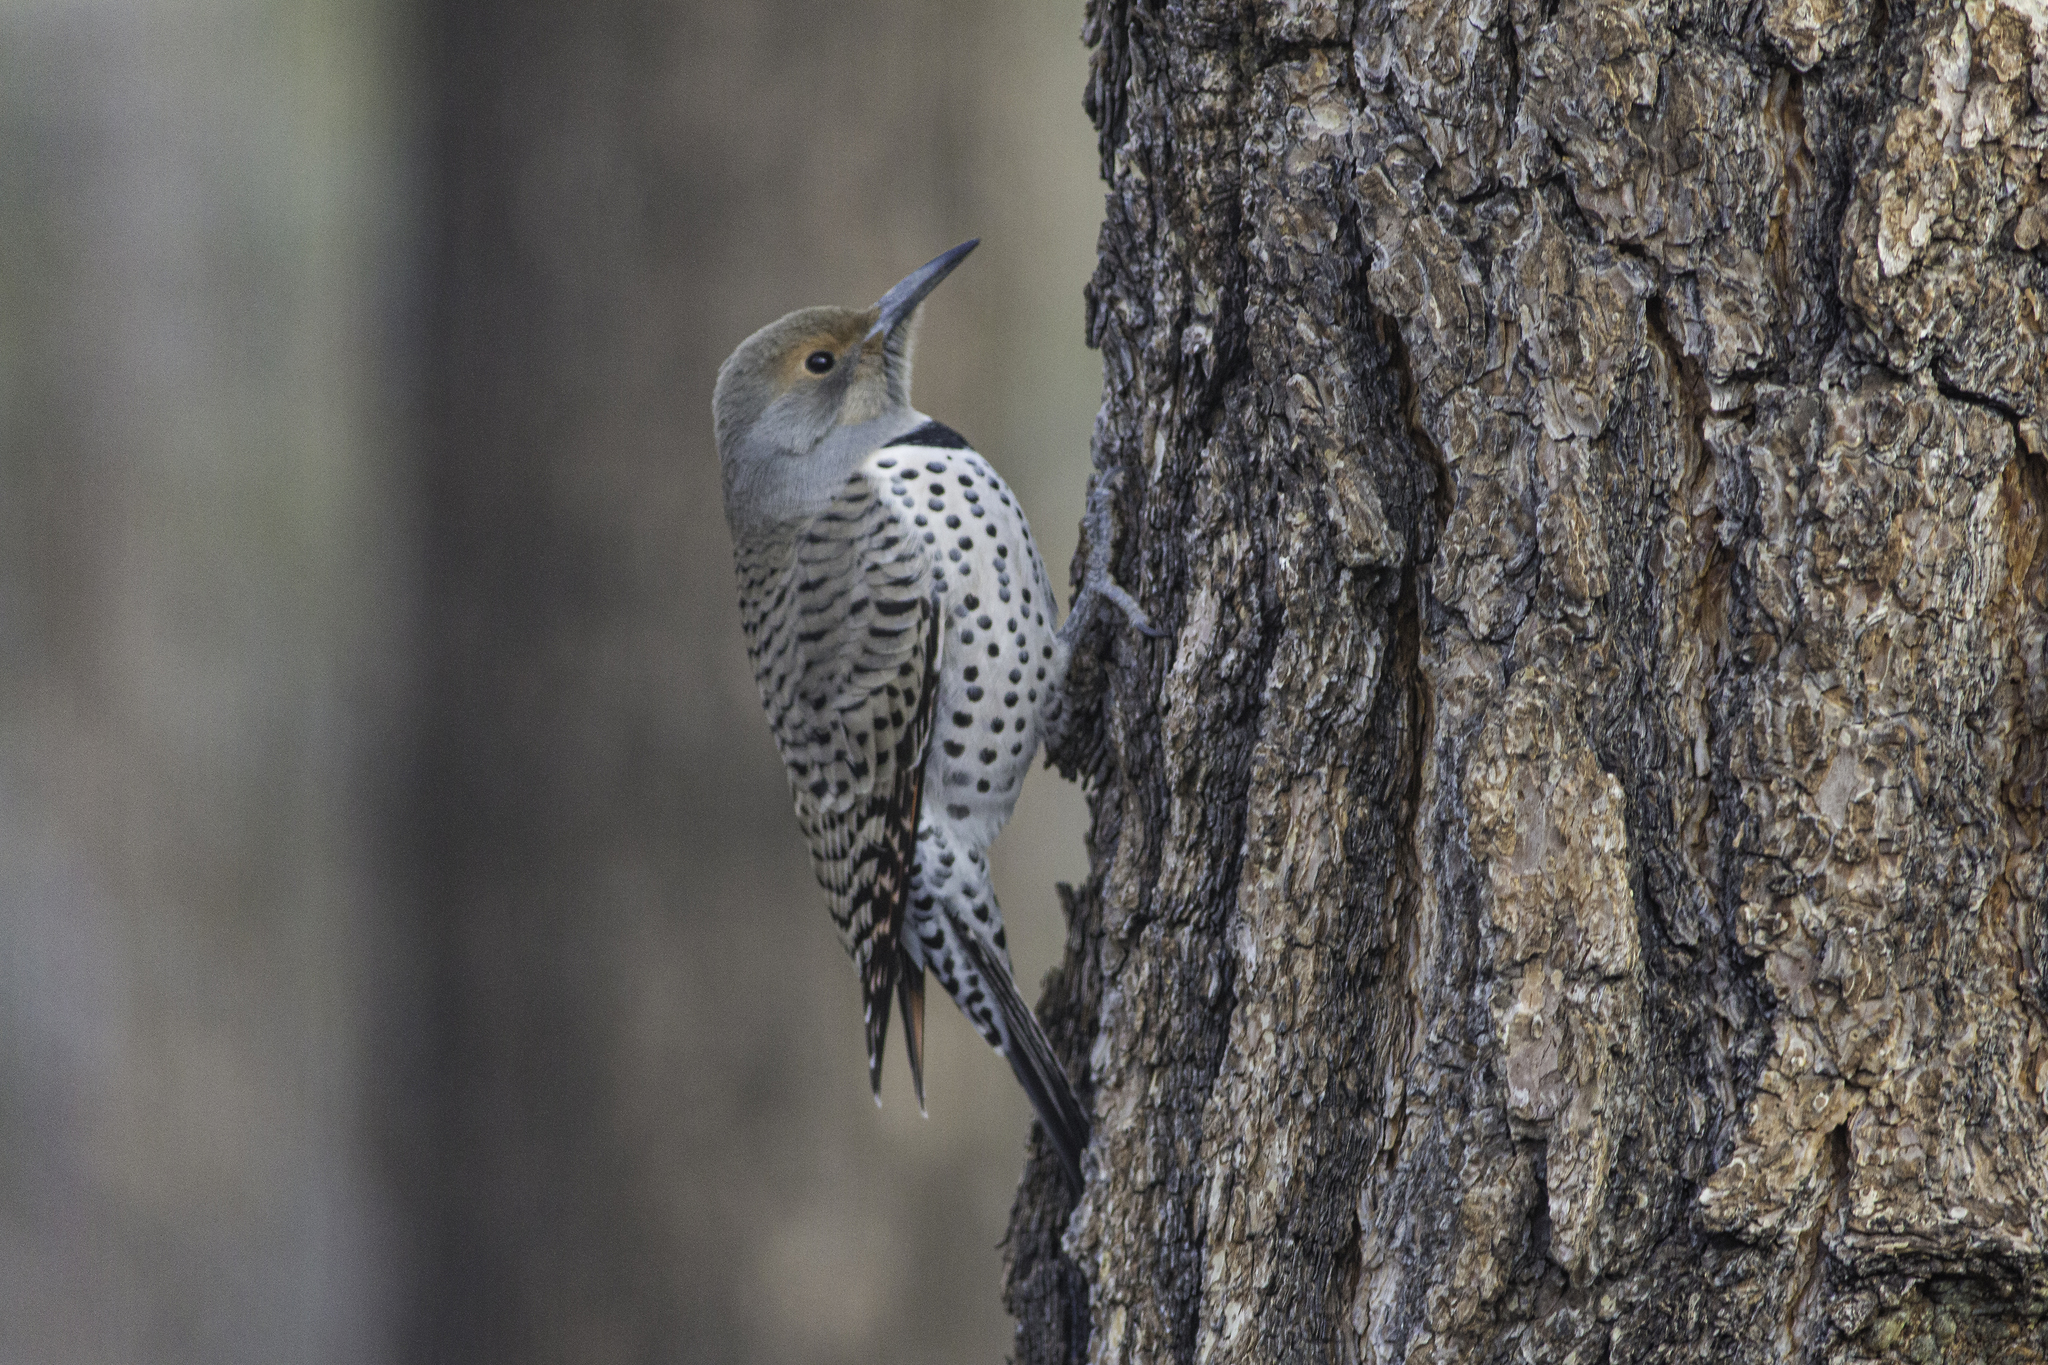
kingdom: Animalia
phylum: Chordata
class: Aves
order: Piciformes
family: Picidae
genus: Colaptes
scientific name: Colaptes auratus
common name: Northern flicker
